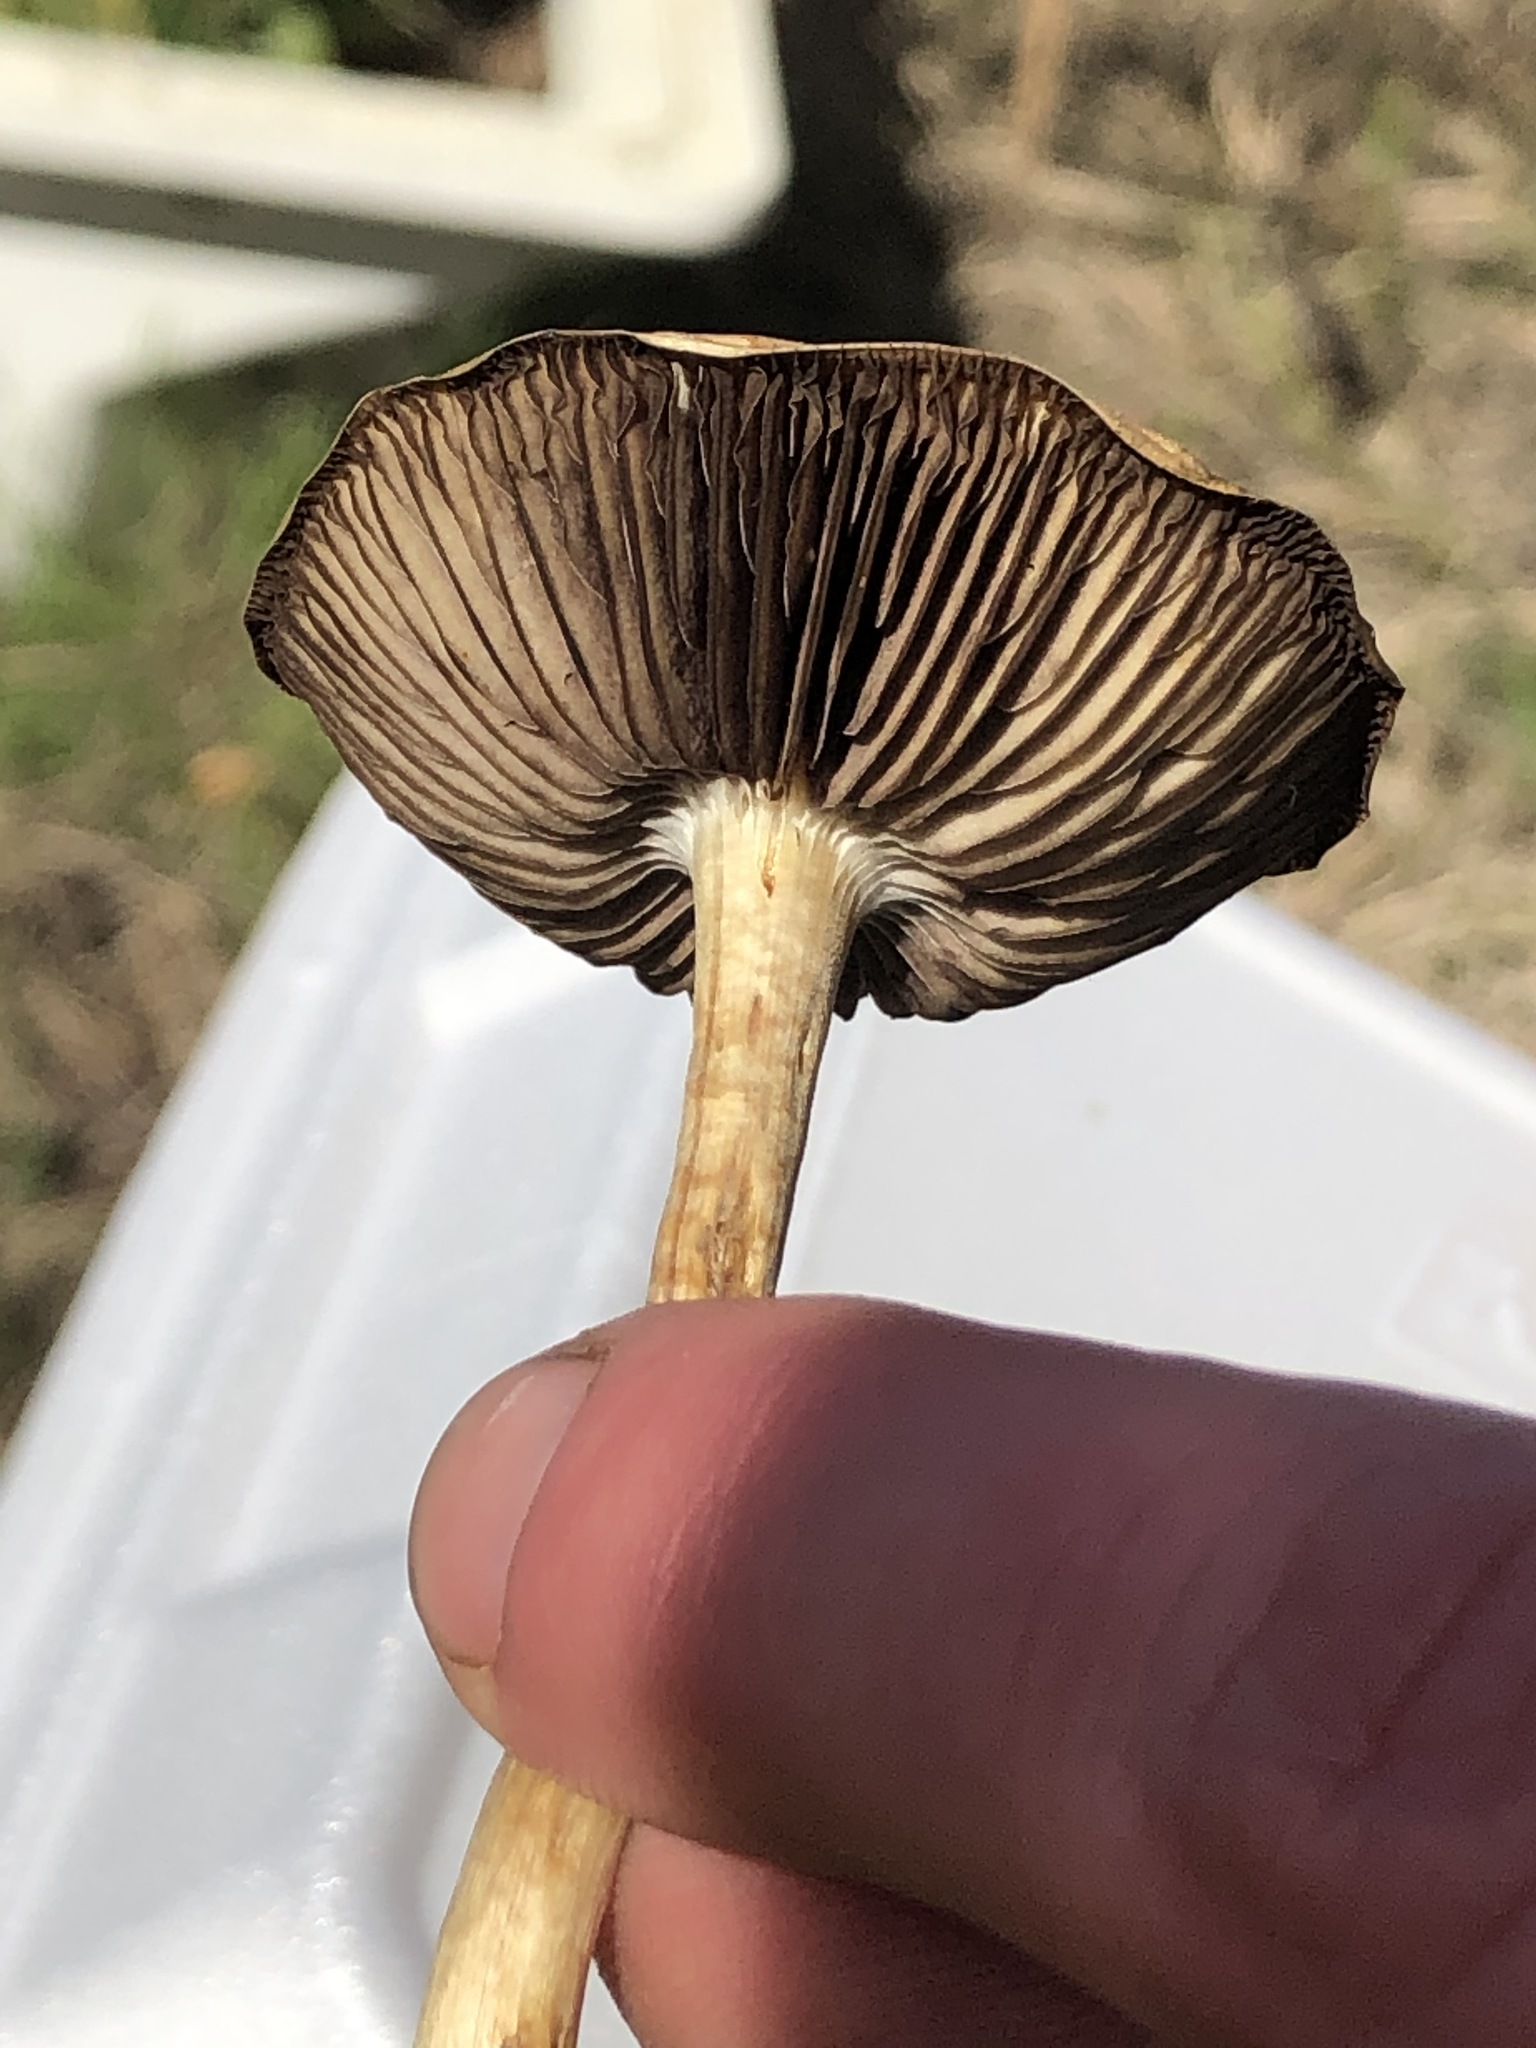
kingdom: Fungi
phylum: Basidiomycota
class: Agaricomycetes
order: Agaricales
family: Strophariaceae
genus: Leratiomyces
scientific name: Leratiomyces percevalii
